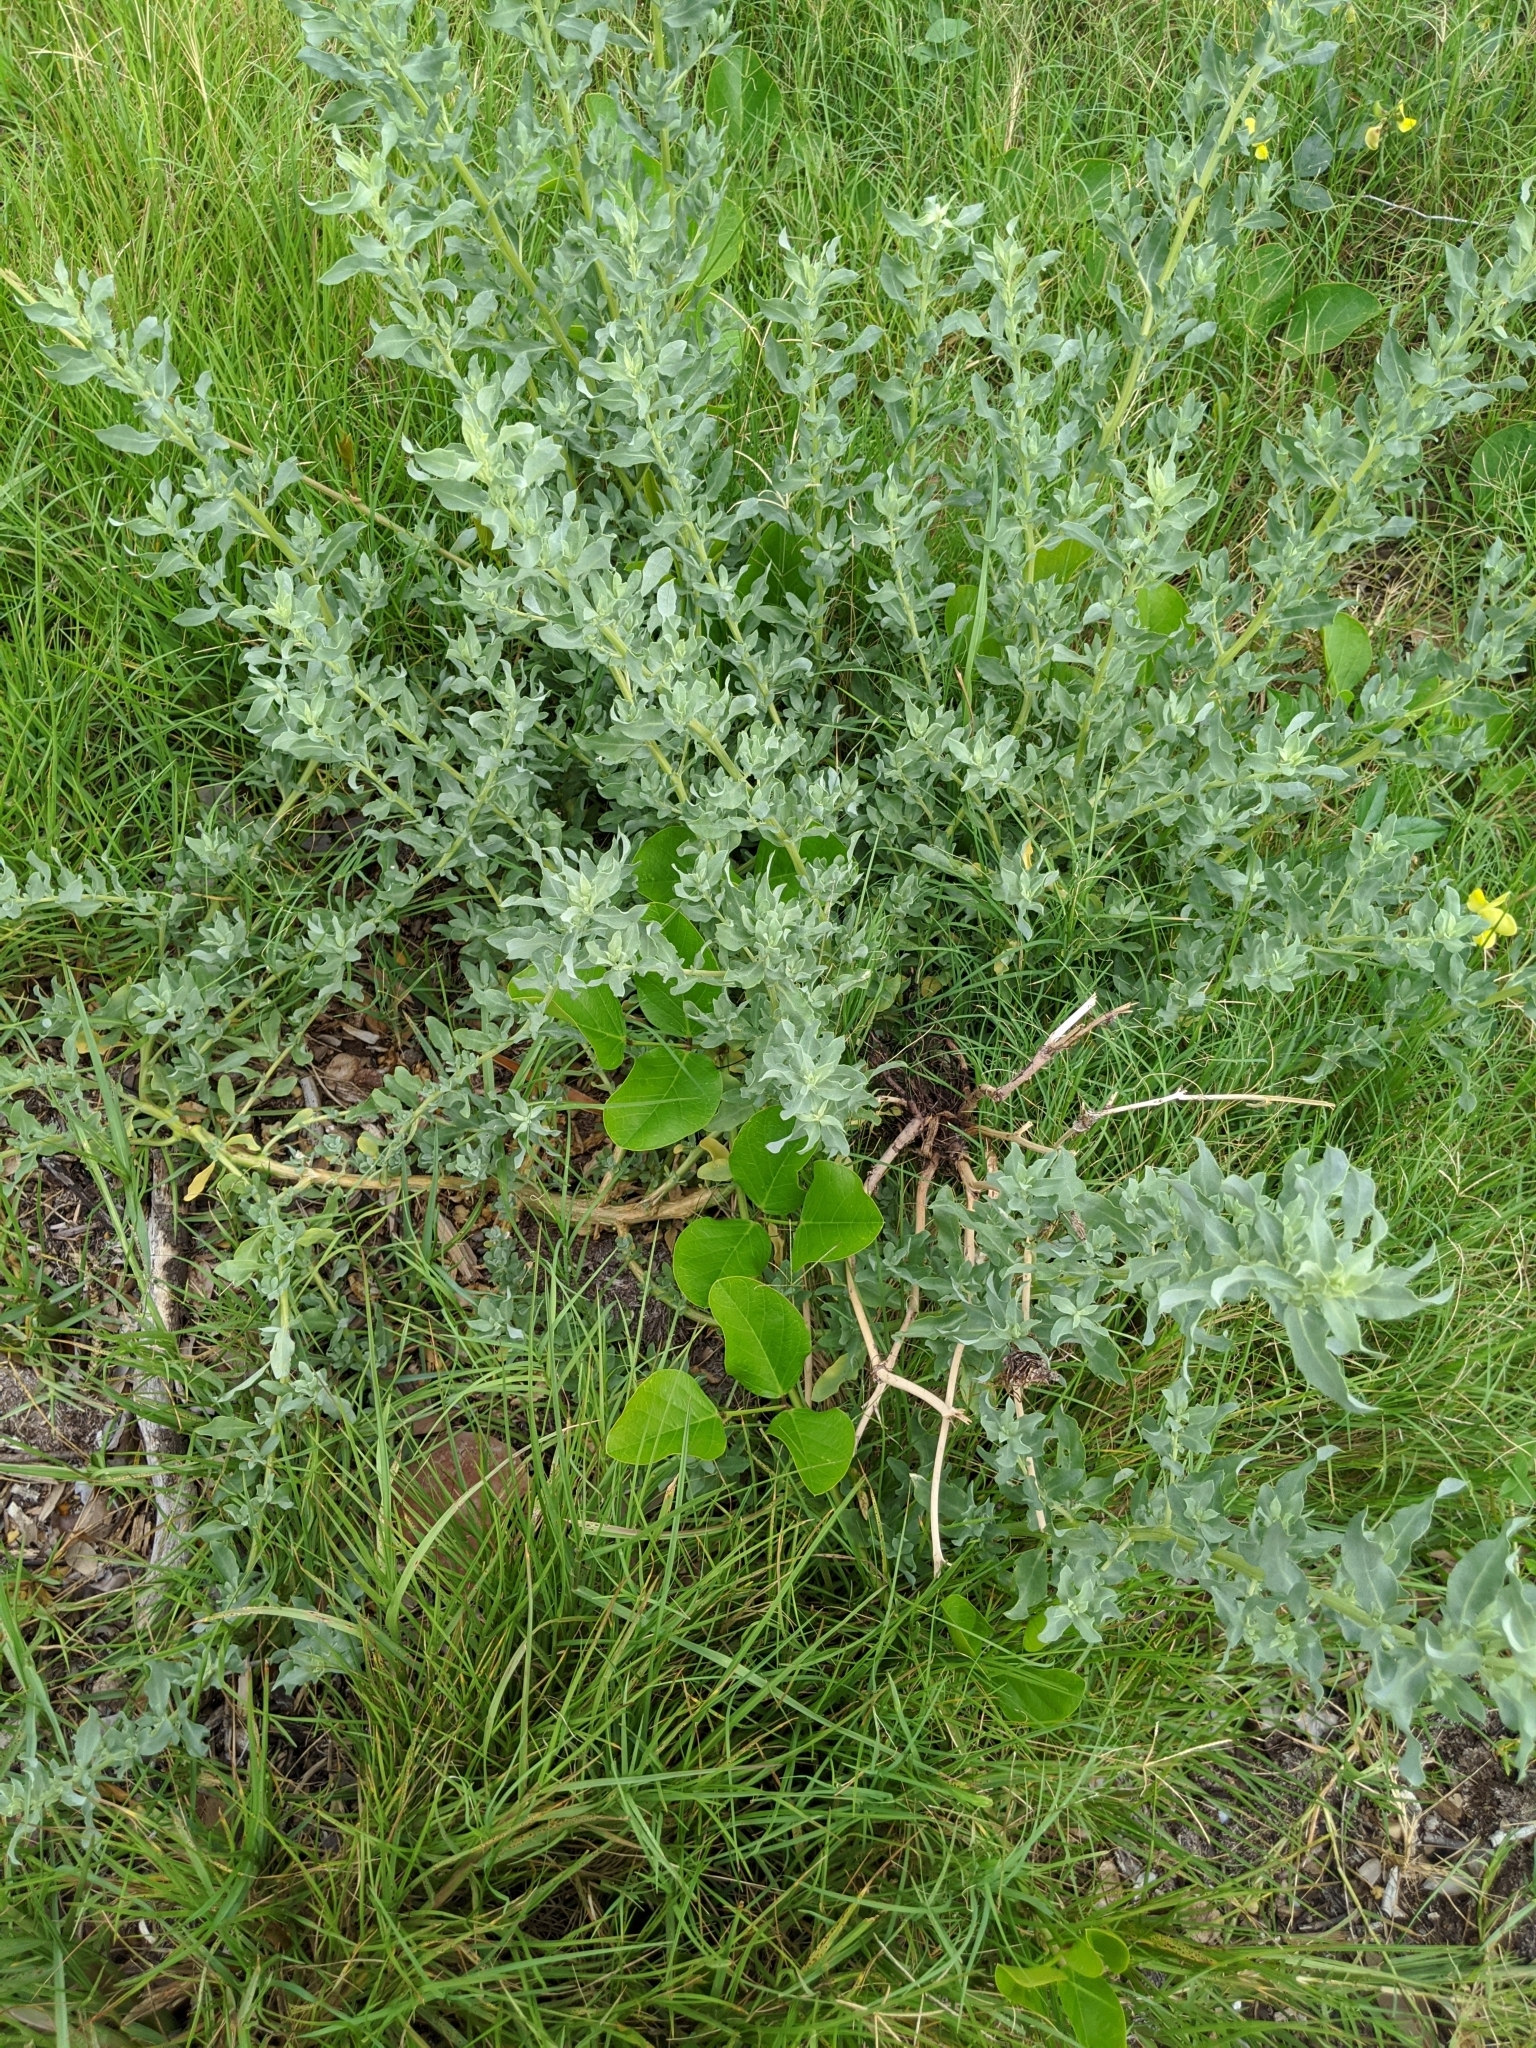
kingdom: Plantae
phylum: Tracheophyta
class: Magnoliopsida
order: Caryophyllales
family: Amaranthaceae
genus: Atriplex
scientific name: Atriplex cristata
